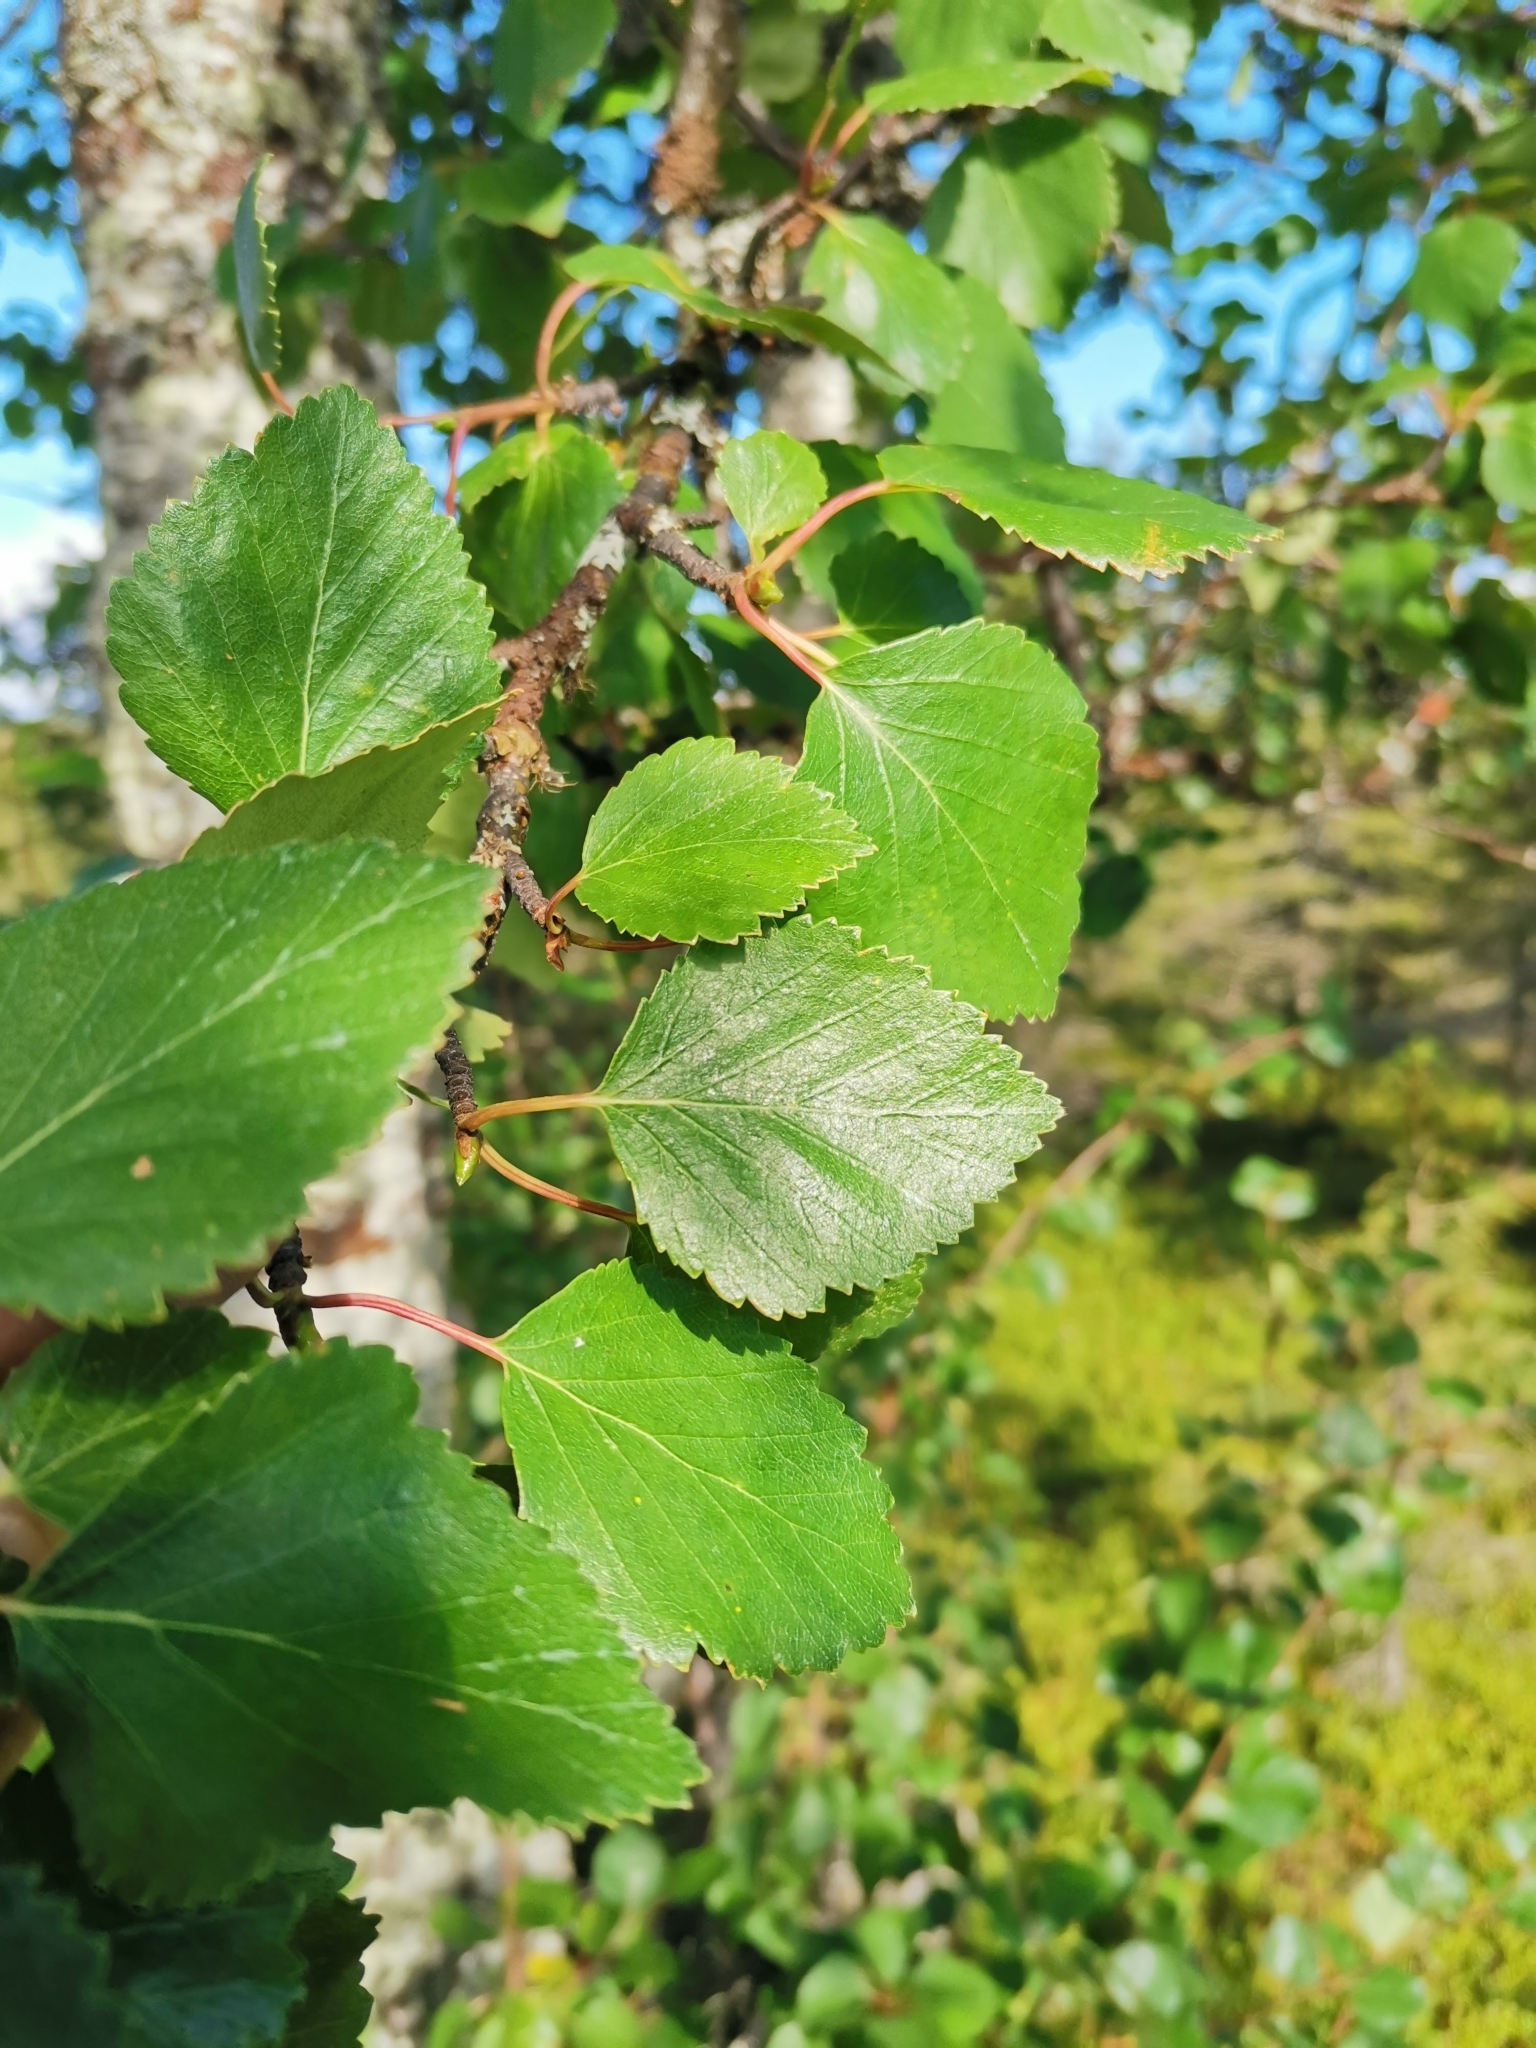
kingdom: Plantae
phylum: Tracheophyta
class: Magnoliopsida
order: Fagales
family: Betulaceae
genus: Betula
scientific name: Betula pubescens
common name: Downy birch
